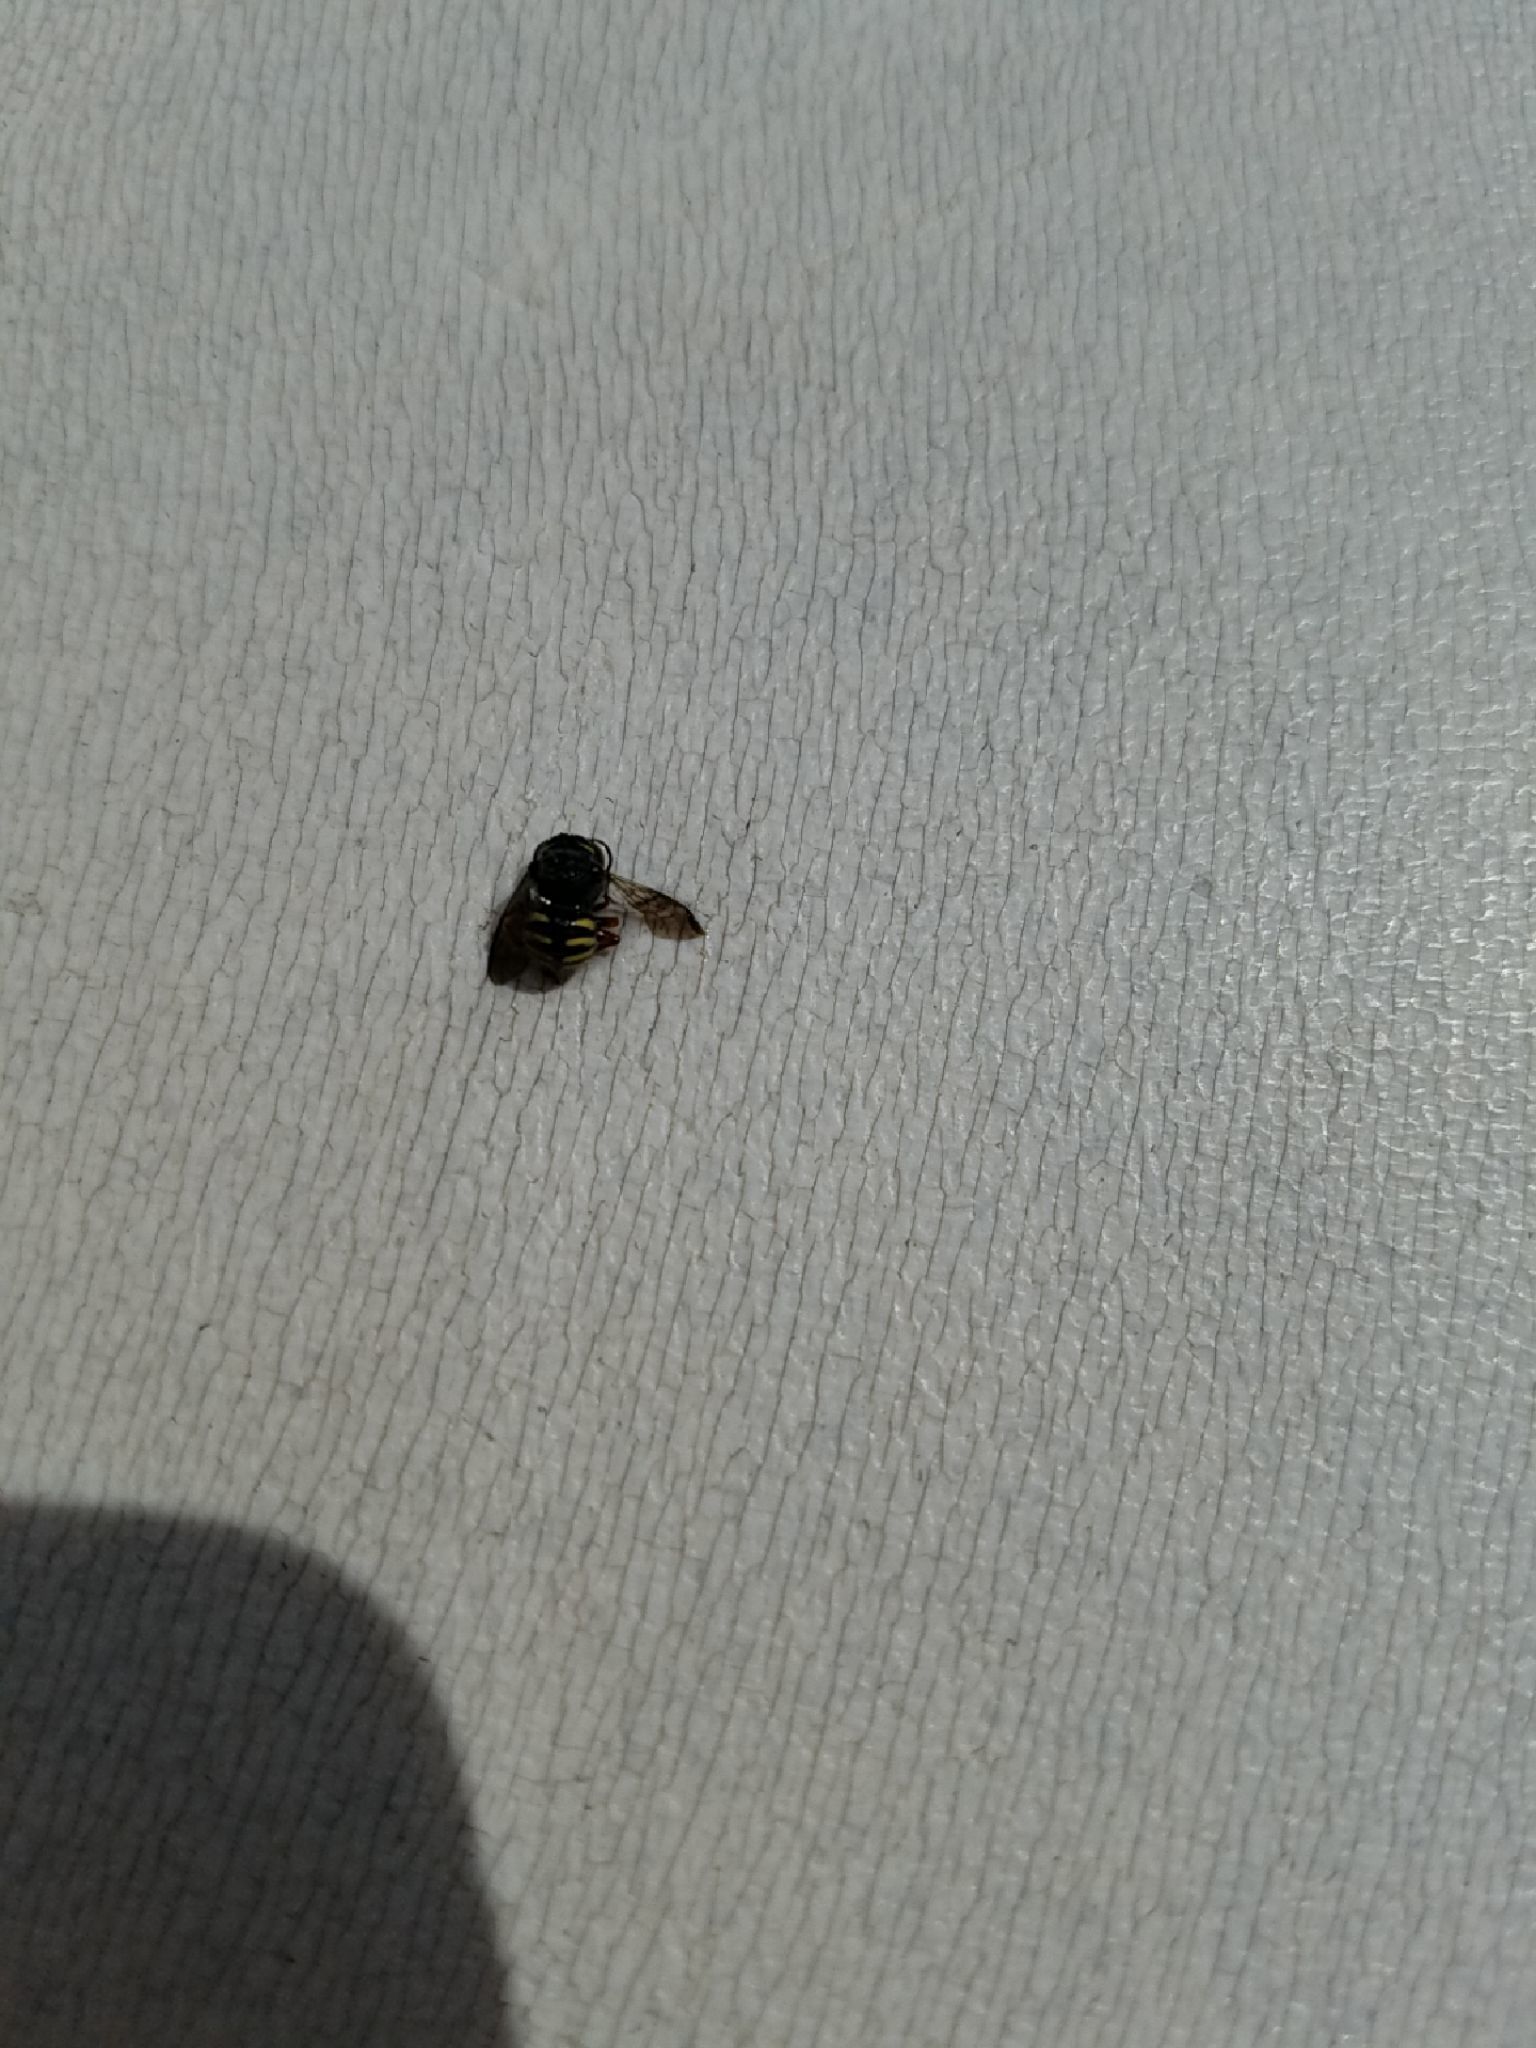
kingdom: Animalia
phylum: Arthropoda
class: Insecta
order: Hymenoptera
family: Megachilidae
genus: Anthidium
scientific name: Anthidium oblongatum
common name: Oblong wool carder bee
